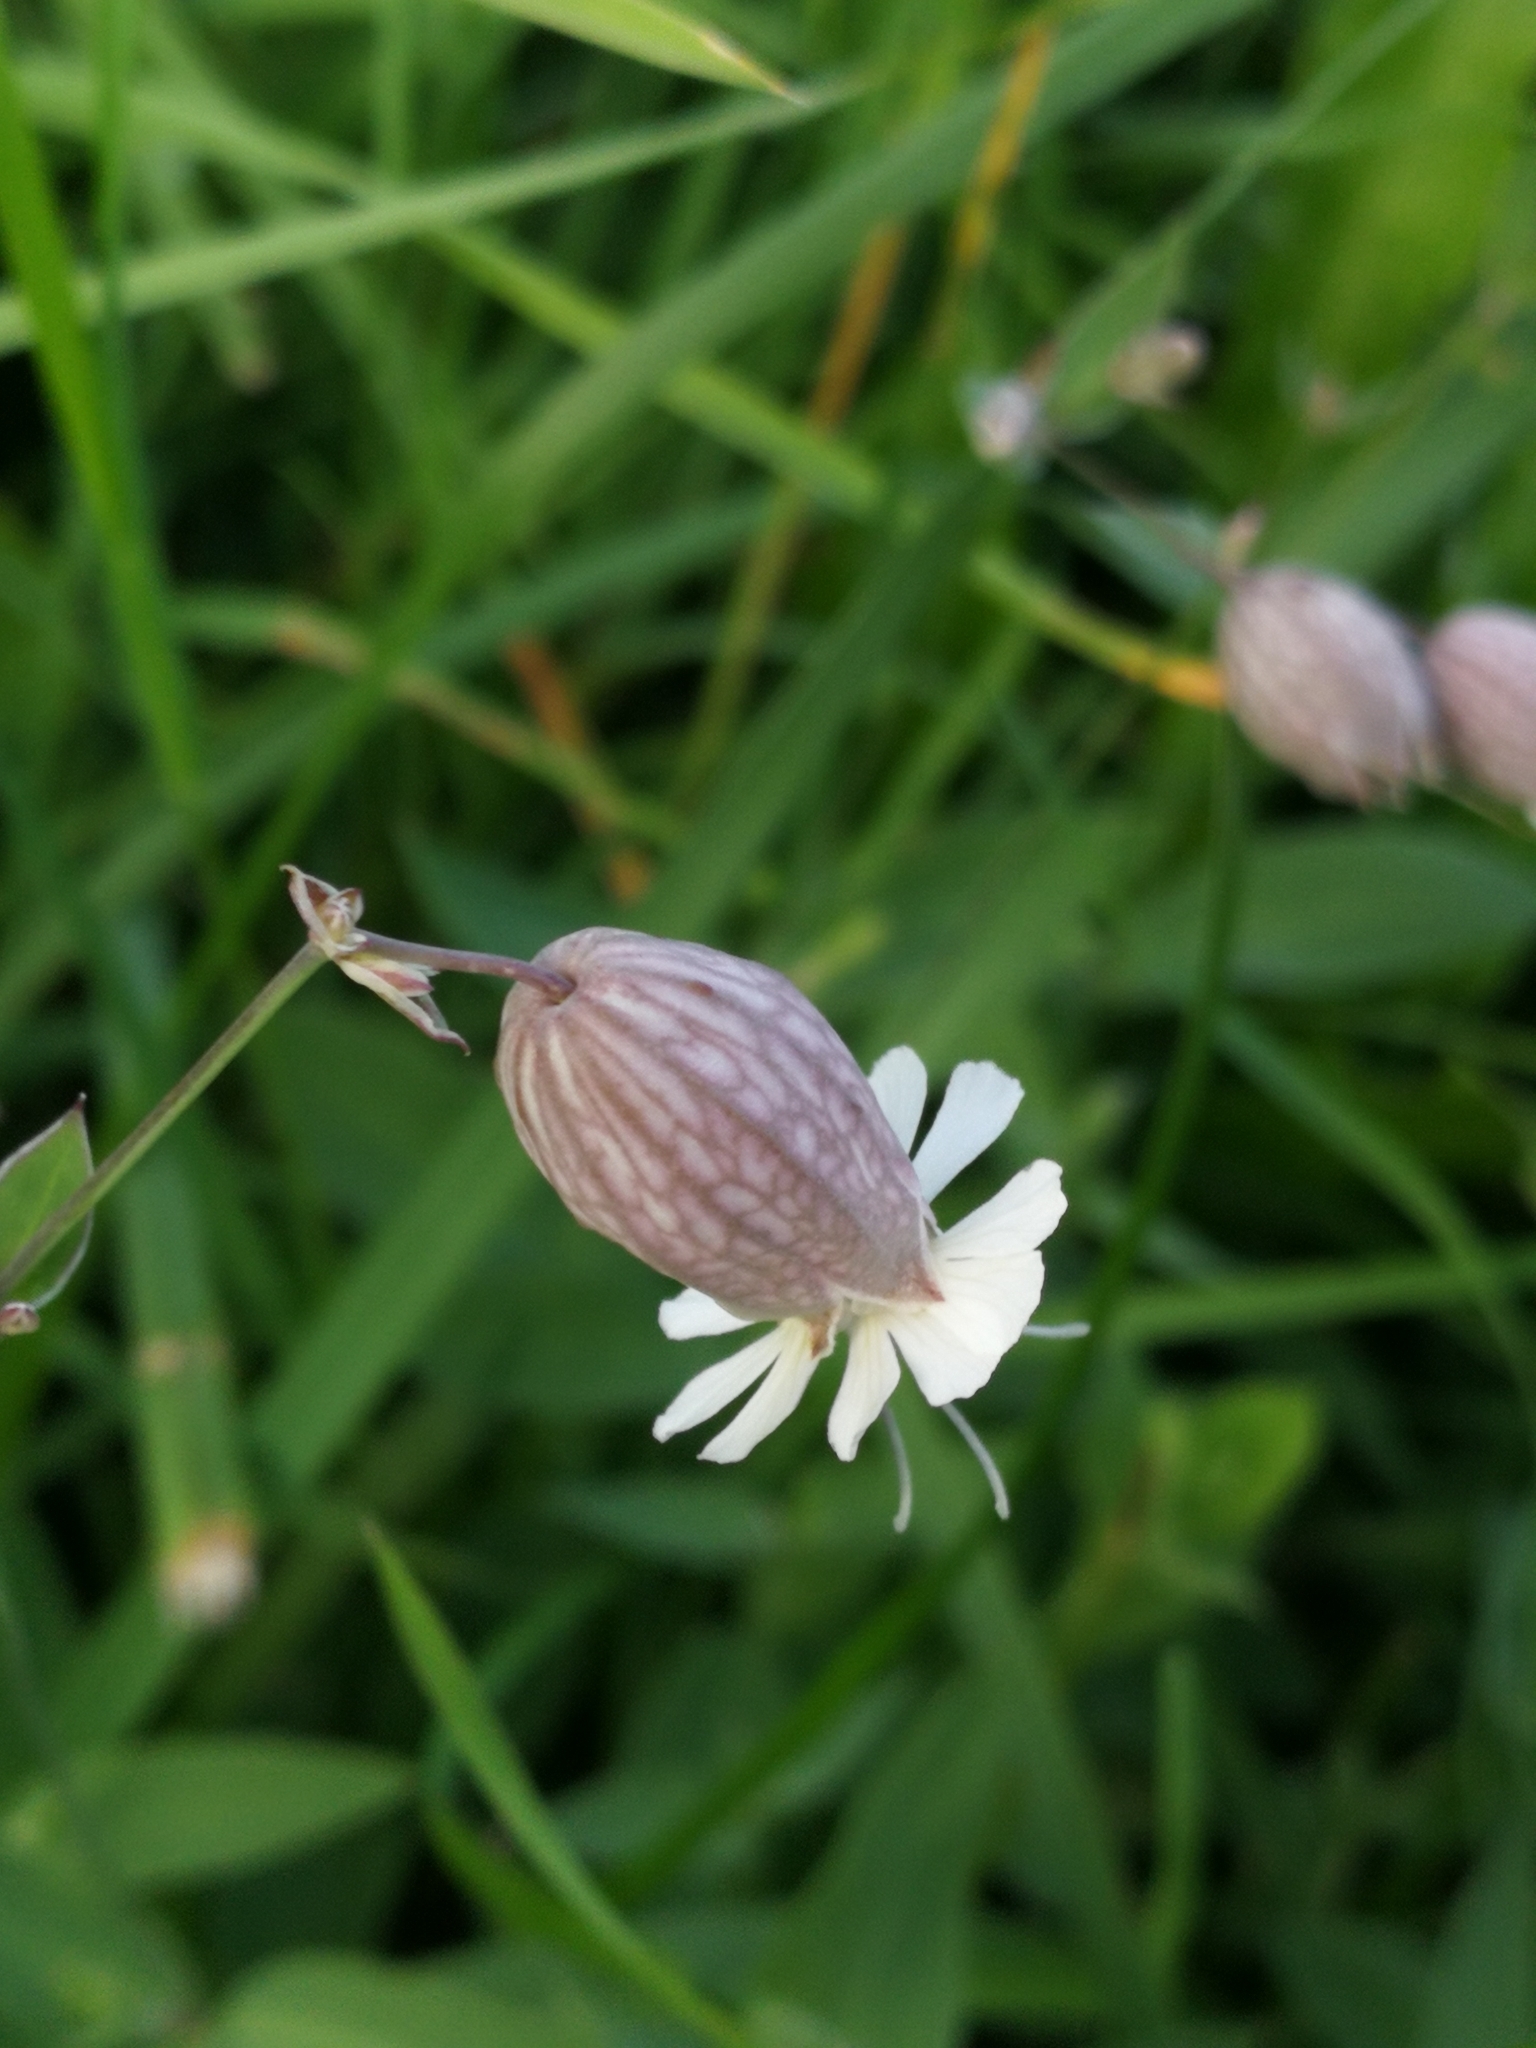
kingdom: Plantae
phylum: Tracheophyta
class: Magnoliopsida
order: Caryophyllales
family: Caryophyllaceae
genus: Silene
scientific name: Silene vulgaris
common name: Bladder campion
